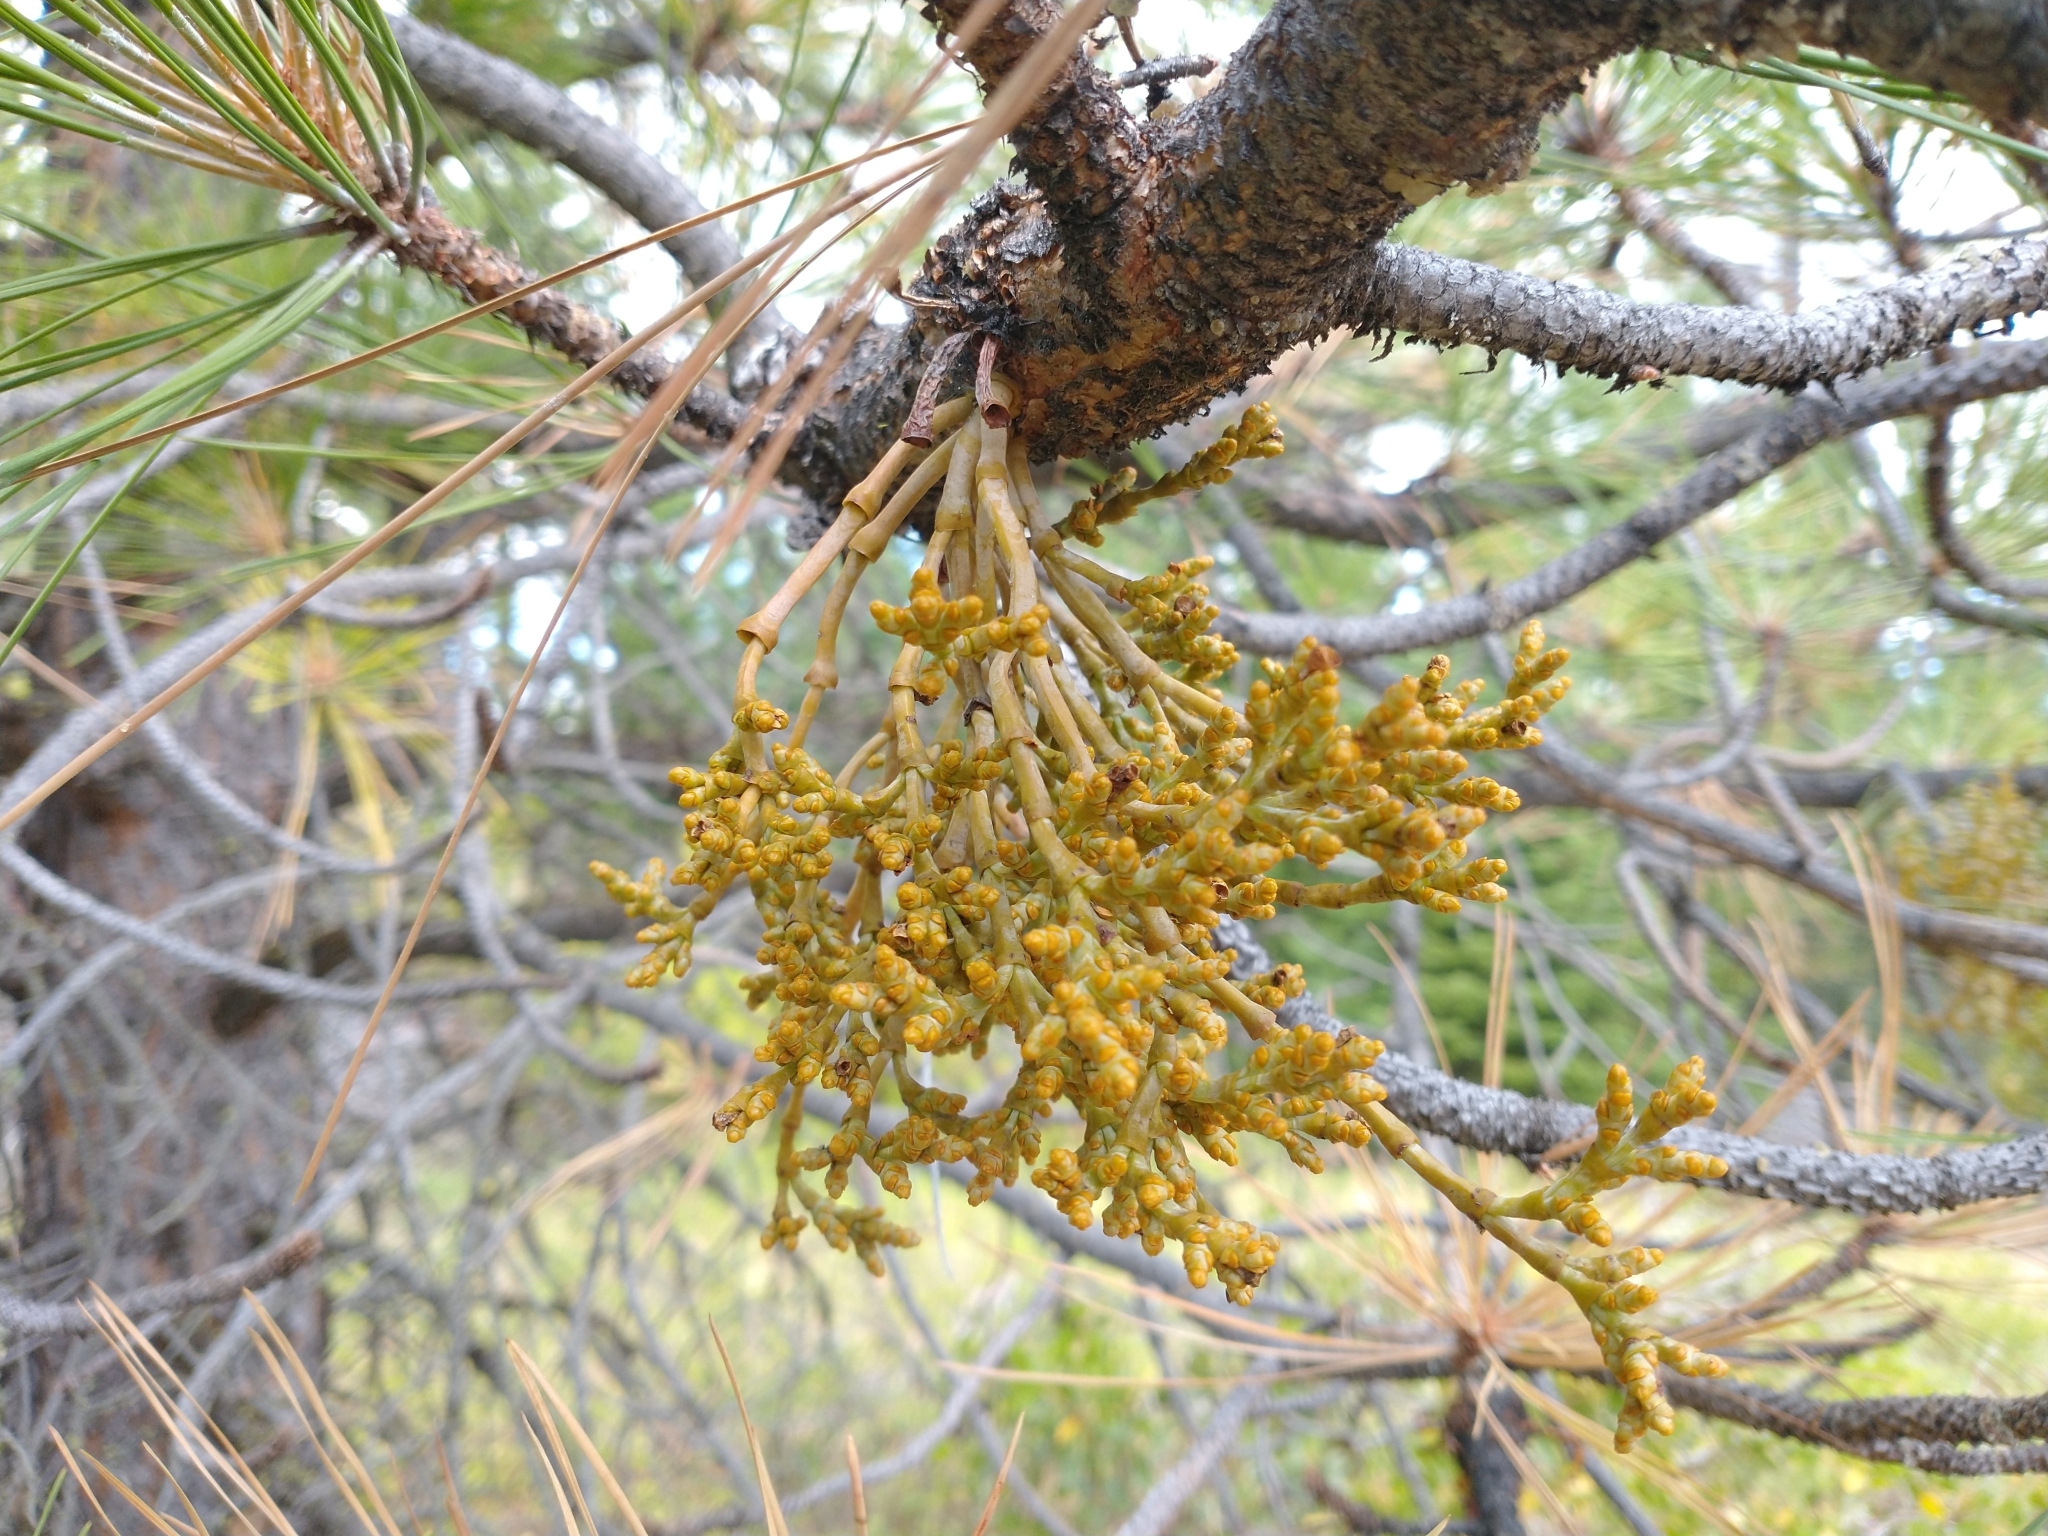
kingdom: Plantae
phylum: Tracheophyta
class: Magnoliopsida
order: Santalales
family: Viscaceae
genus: Arceuthobium
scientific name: Arceuthobium campylopodum
